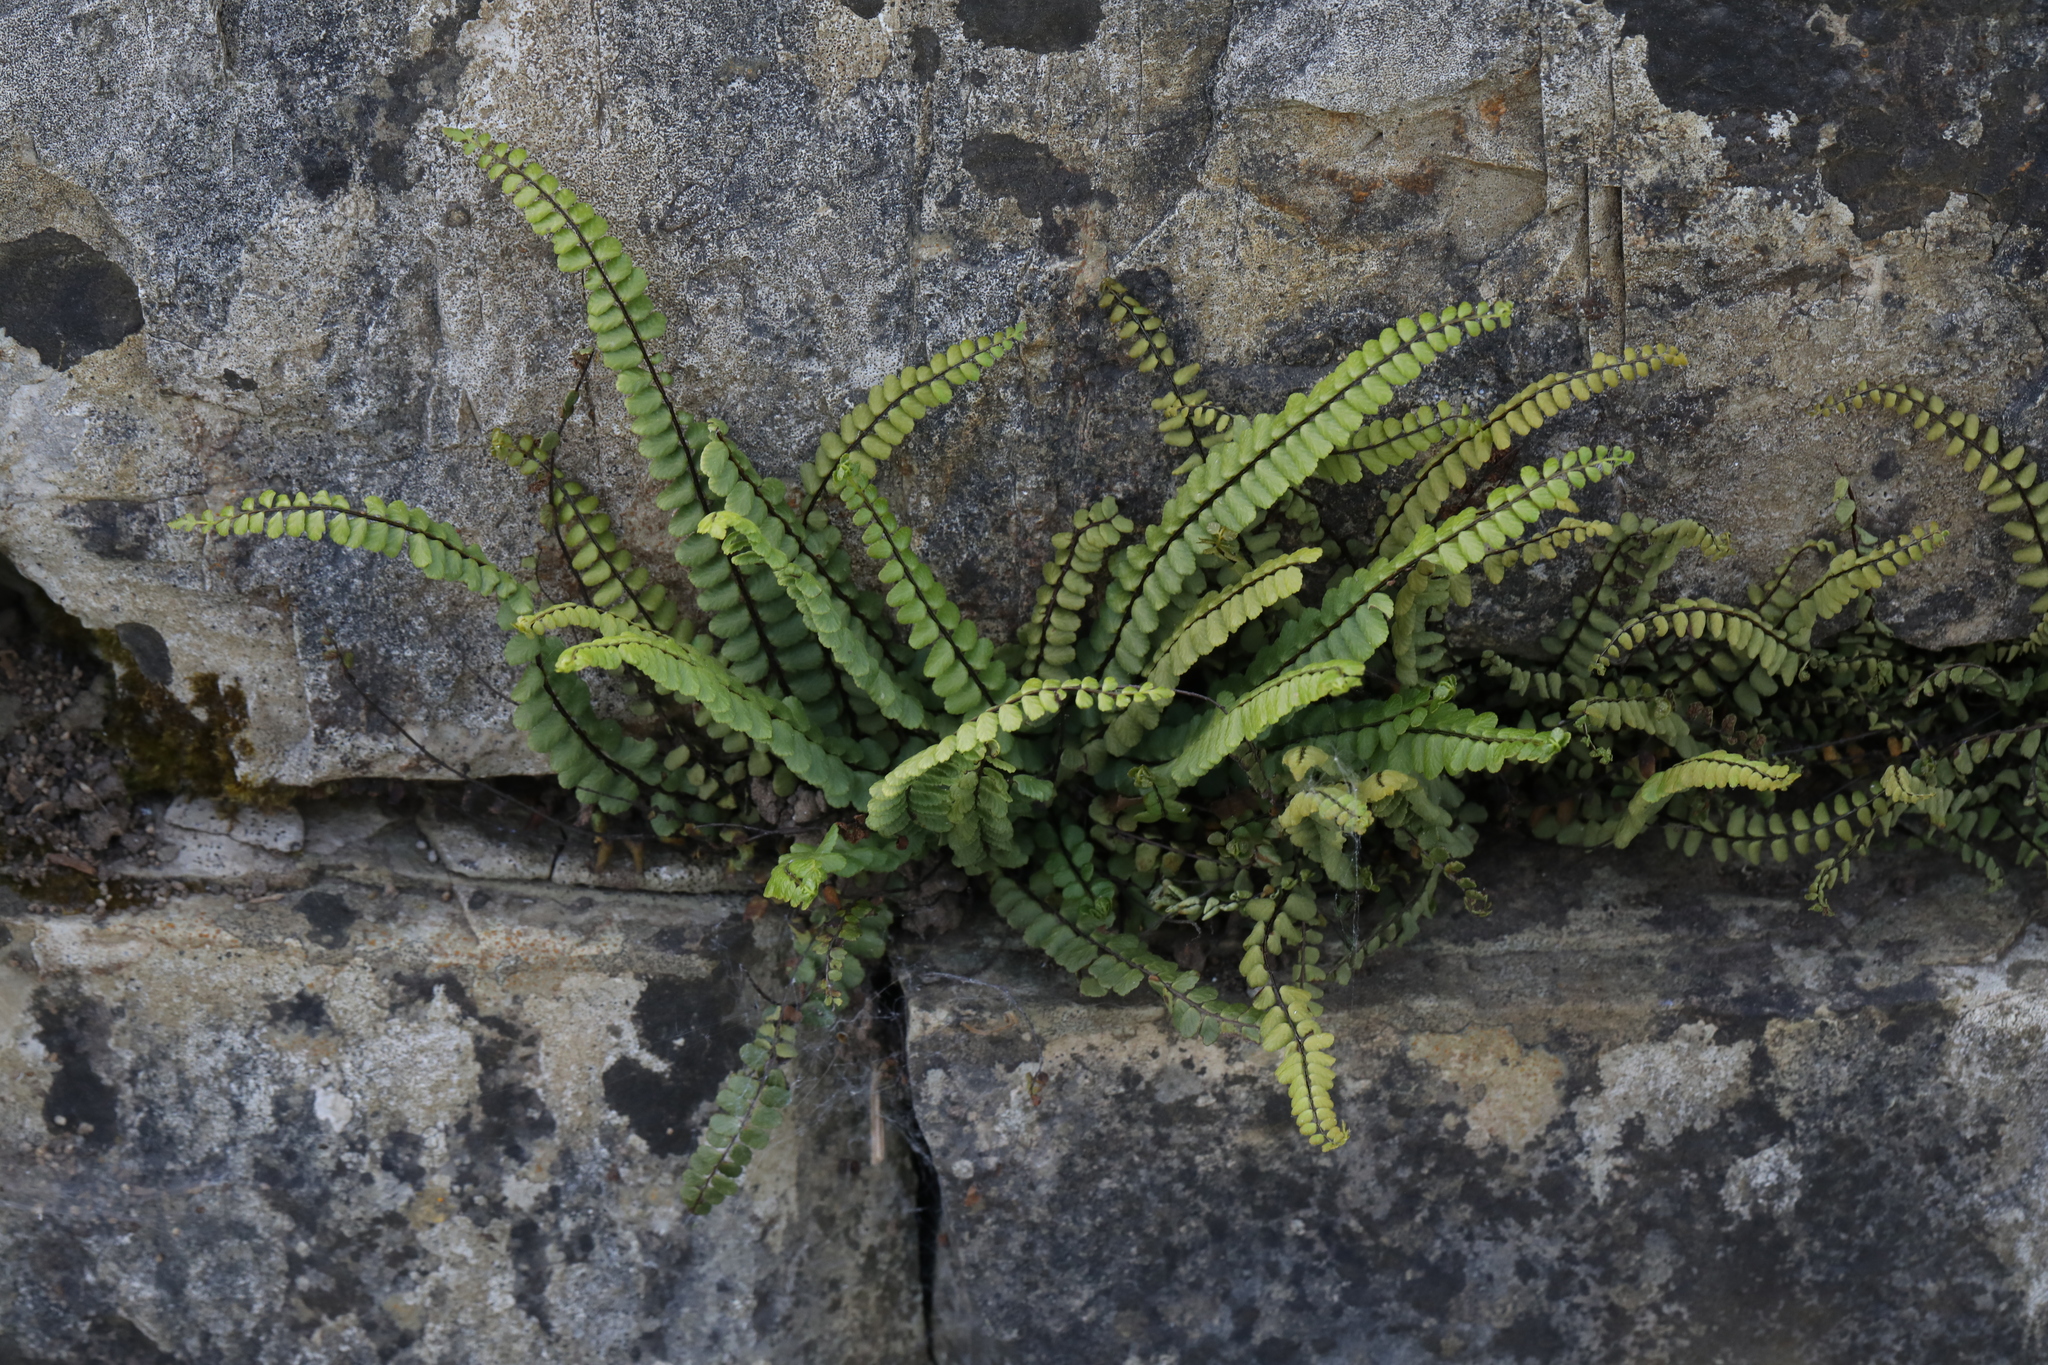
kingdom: Plantae
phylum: Tracheophyta
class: Polypodiopsida
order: Polypodiales
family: Aspleniaceae
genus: Asplenium
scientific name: Asplenium trichomanes
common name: Maidenhair spleenwort
